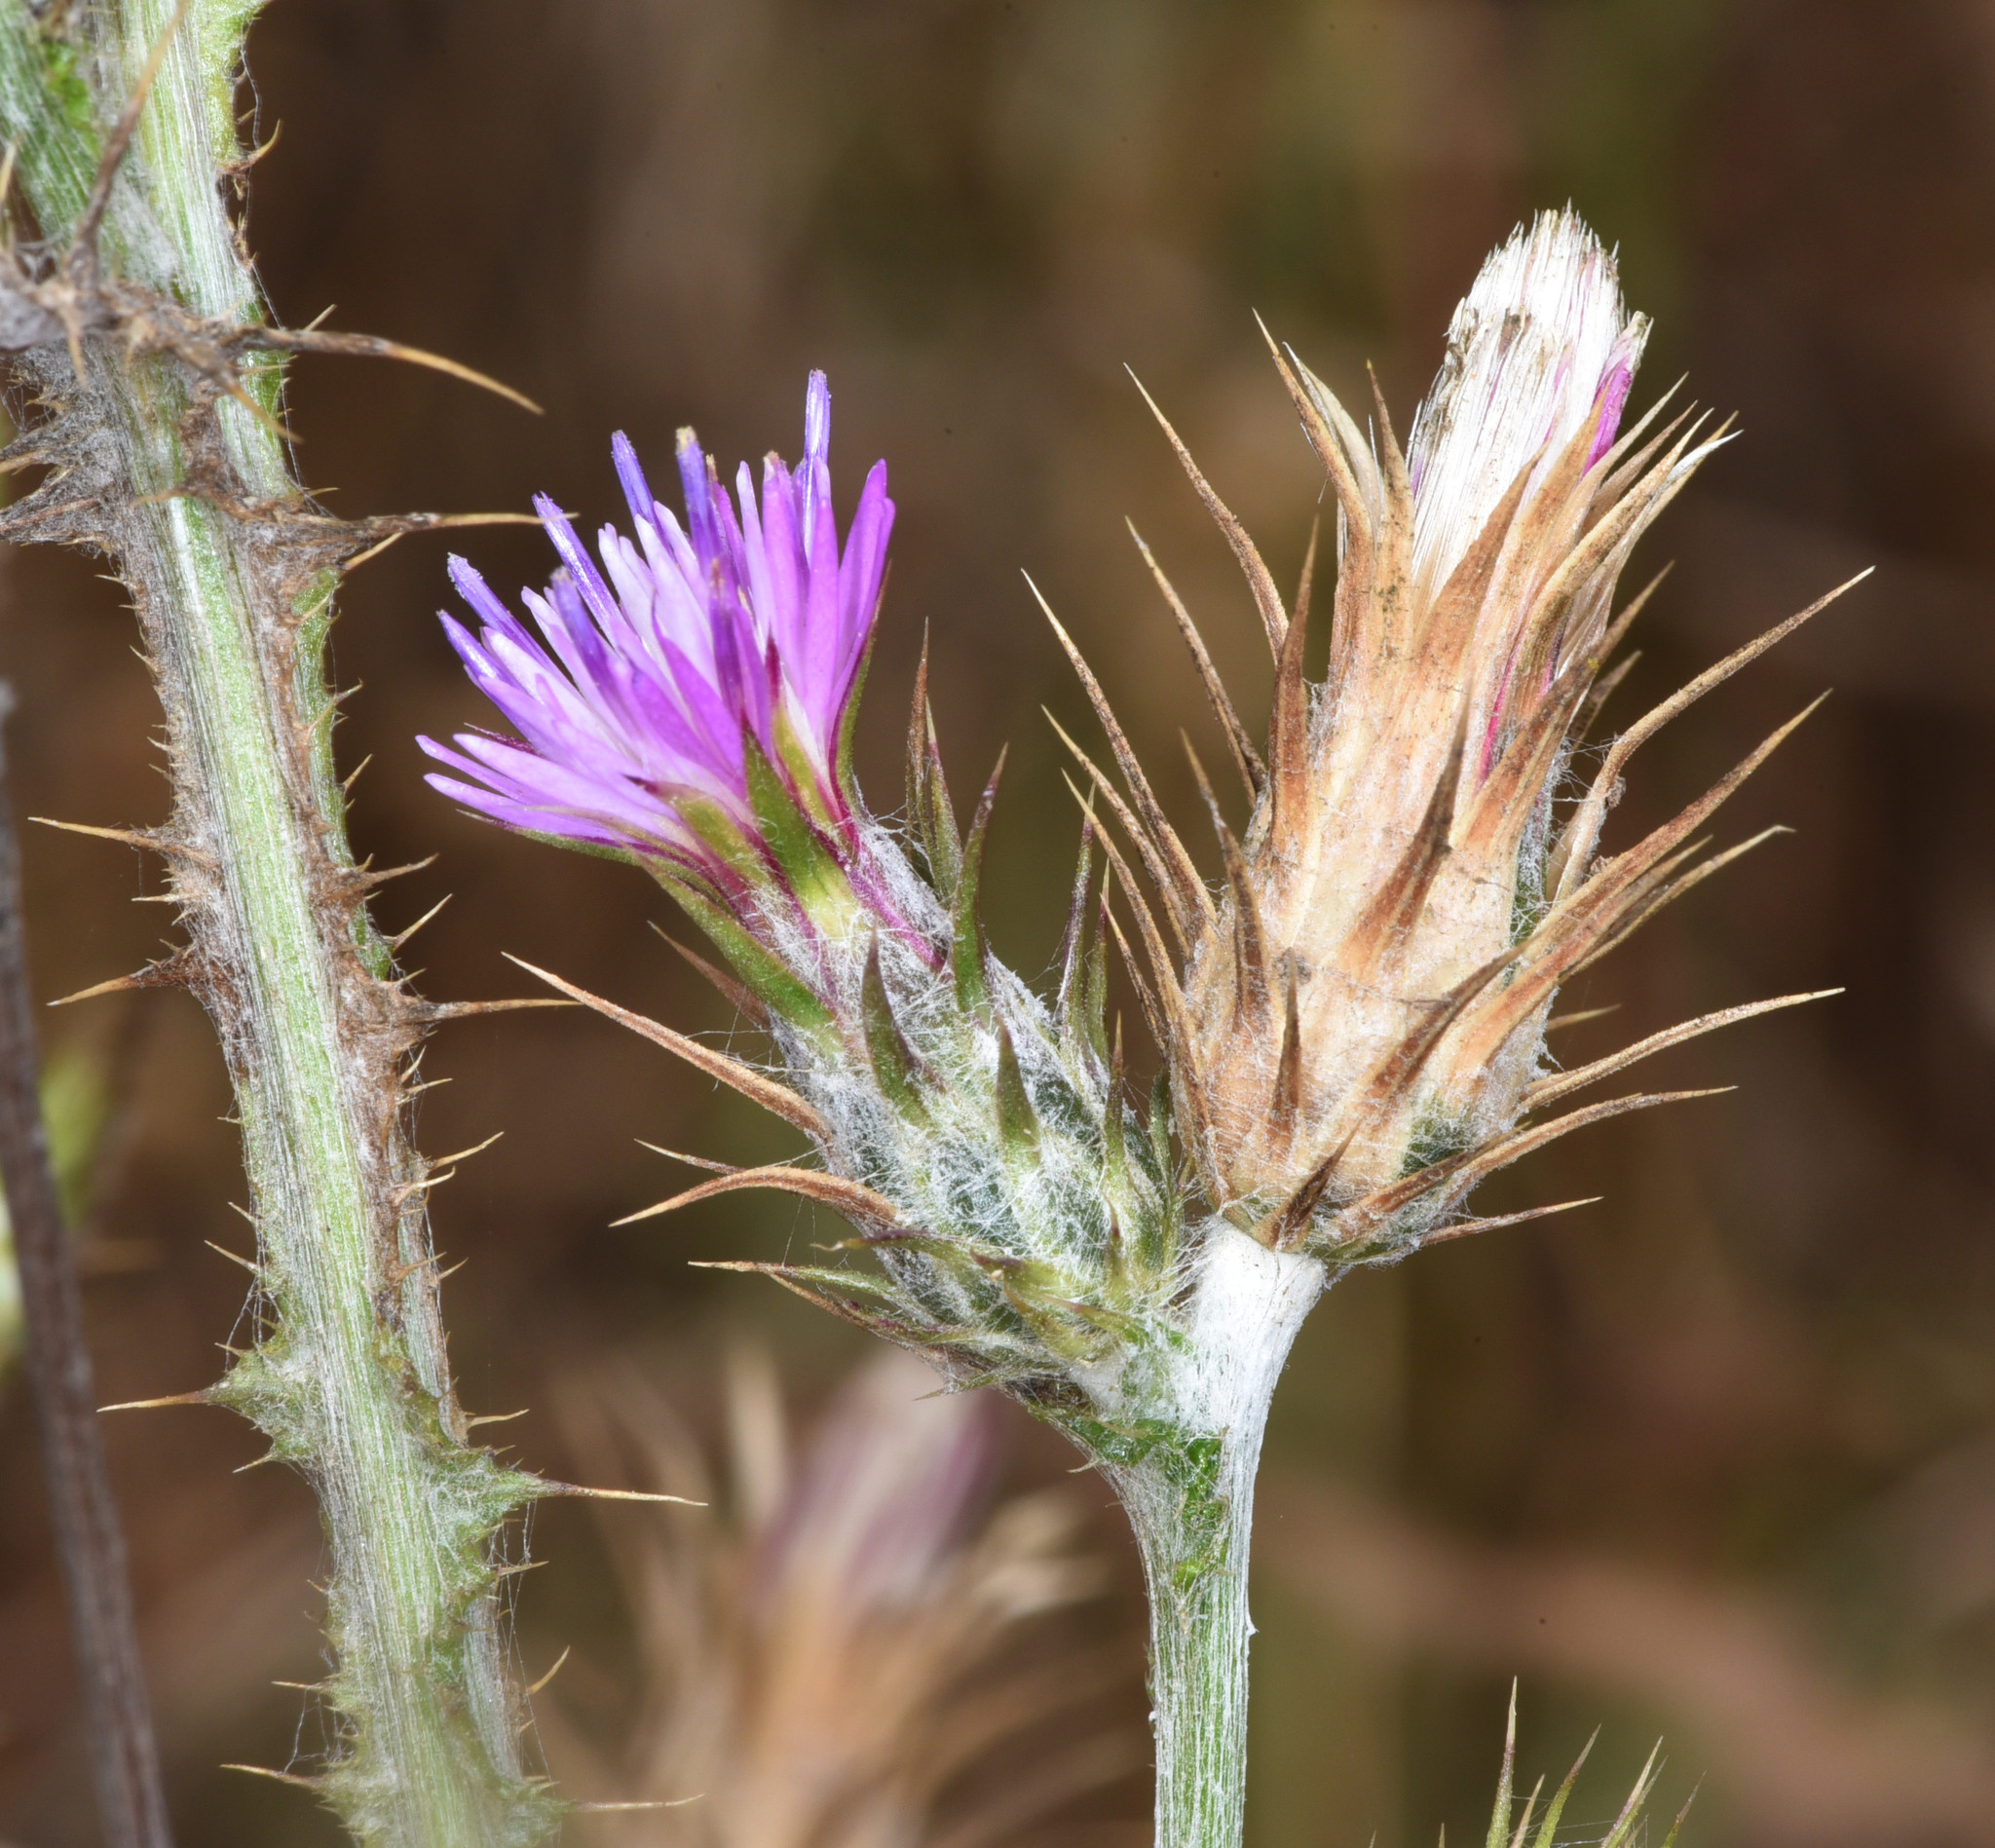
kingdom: Plantae
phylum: Tracheophyta
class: Magnoliopsida
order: Asterales
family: Asteraceae
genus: Carduus
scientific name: Carduus pycnocephalus
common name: Plymouth thistle
